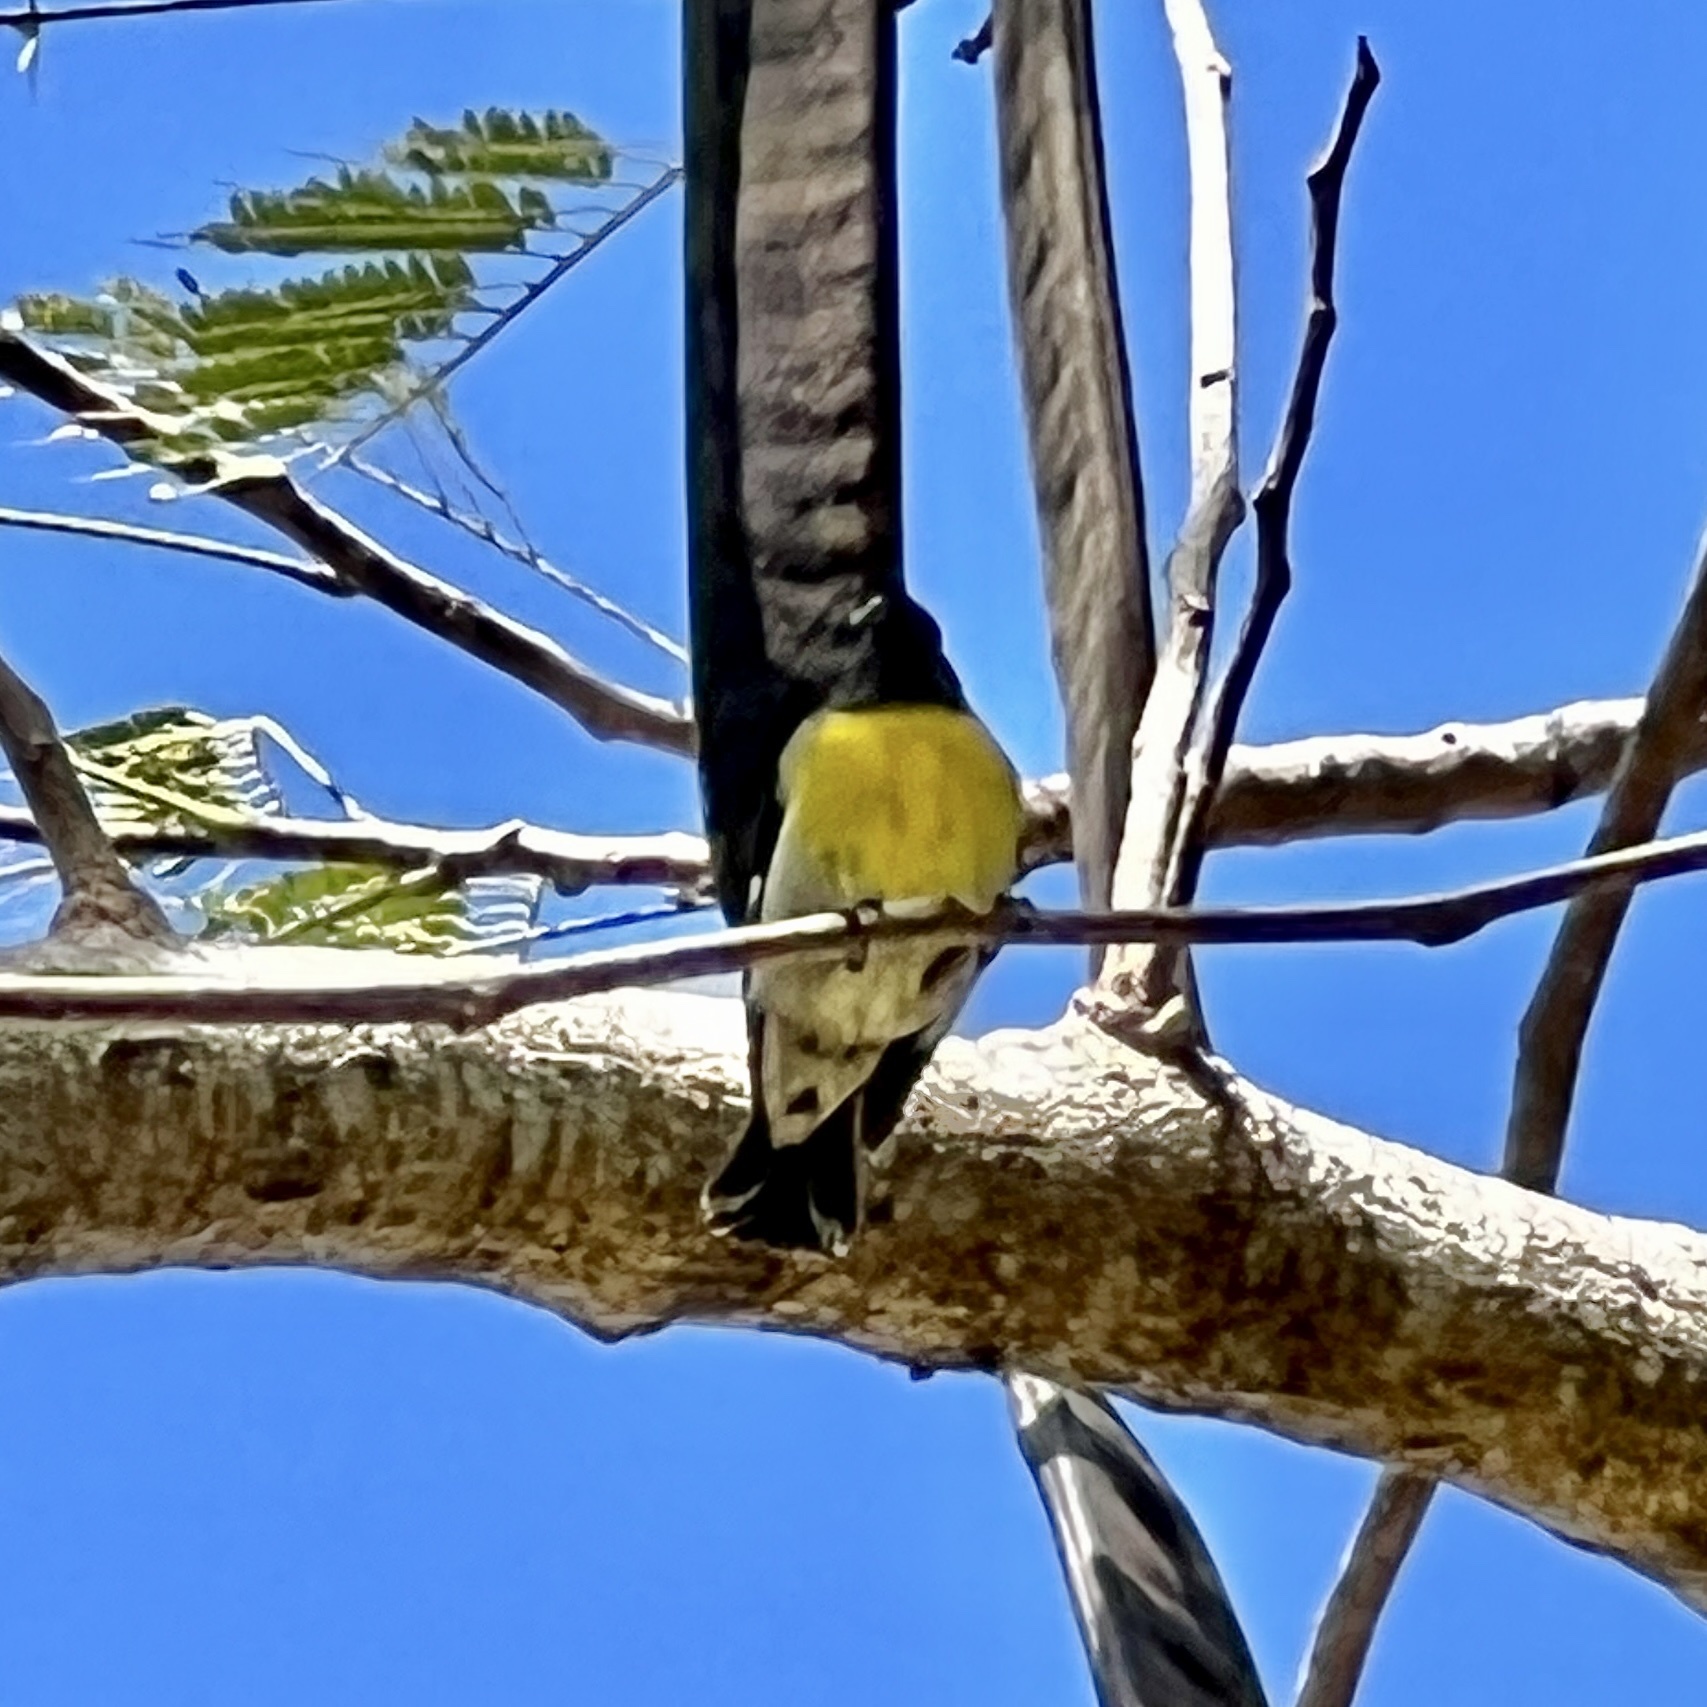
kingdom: Animalia
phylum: Chordata
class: Aves
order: Passeriformes
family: Thraupidae
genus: Coereba
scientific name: Coereba flaveola
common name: Bananaquit
